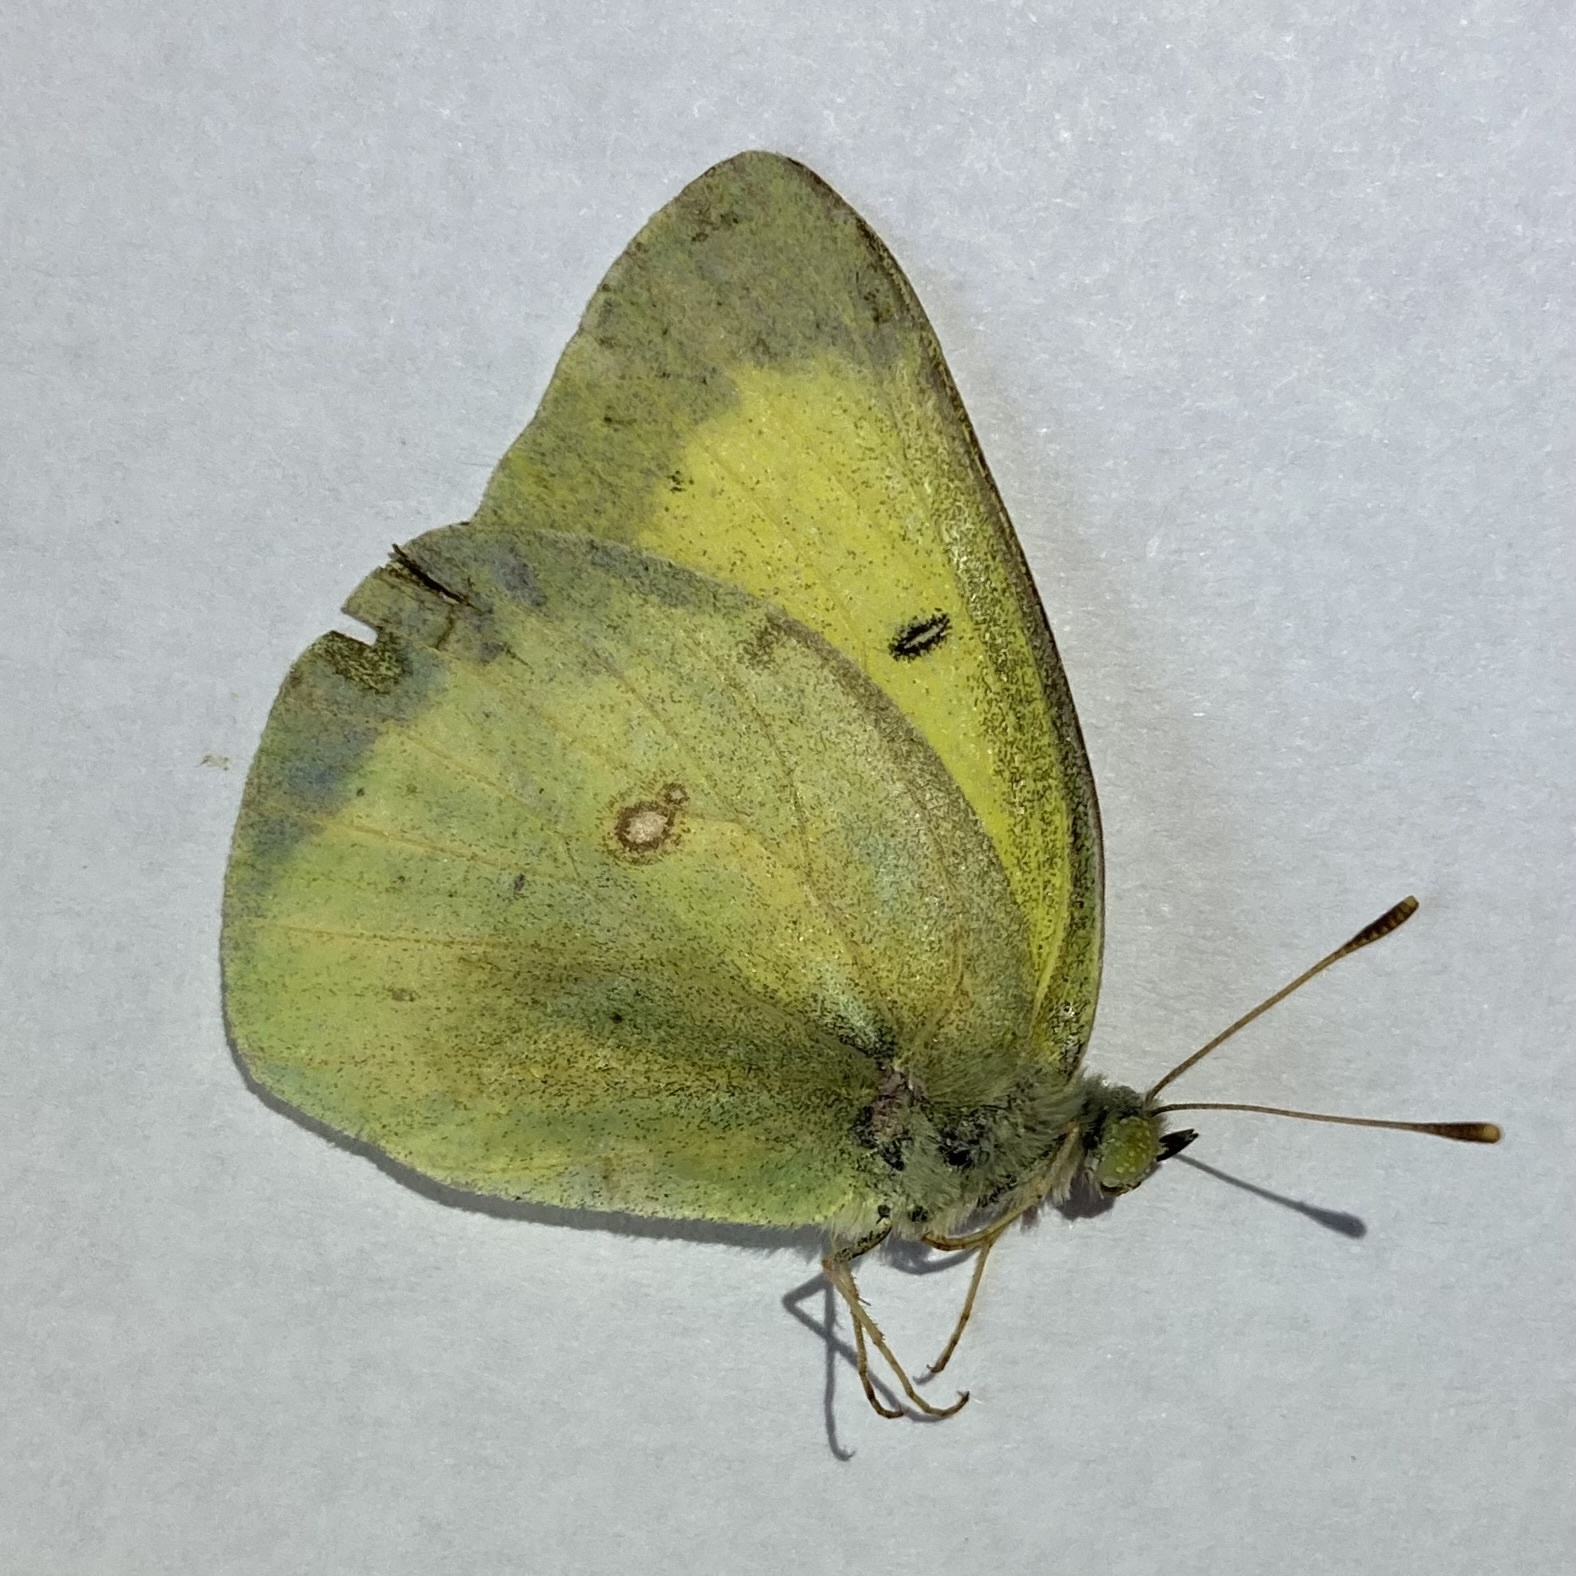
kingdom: Animalia
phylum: Arthropoda
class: Insecta
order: Lepidoptera
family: Pieridae
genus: Colias
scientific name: Colias philodice
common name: Clouded sulphur
